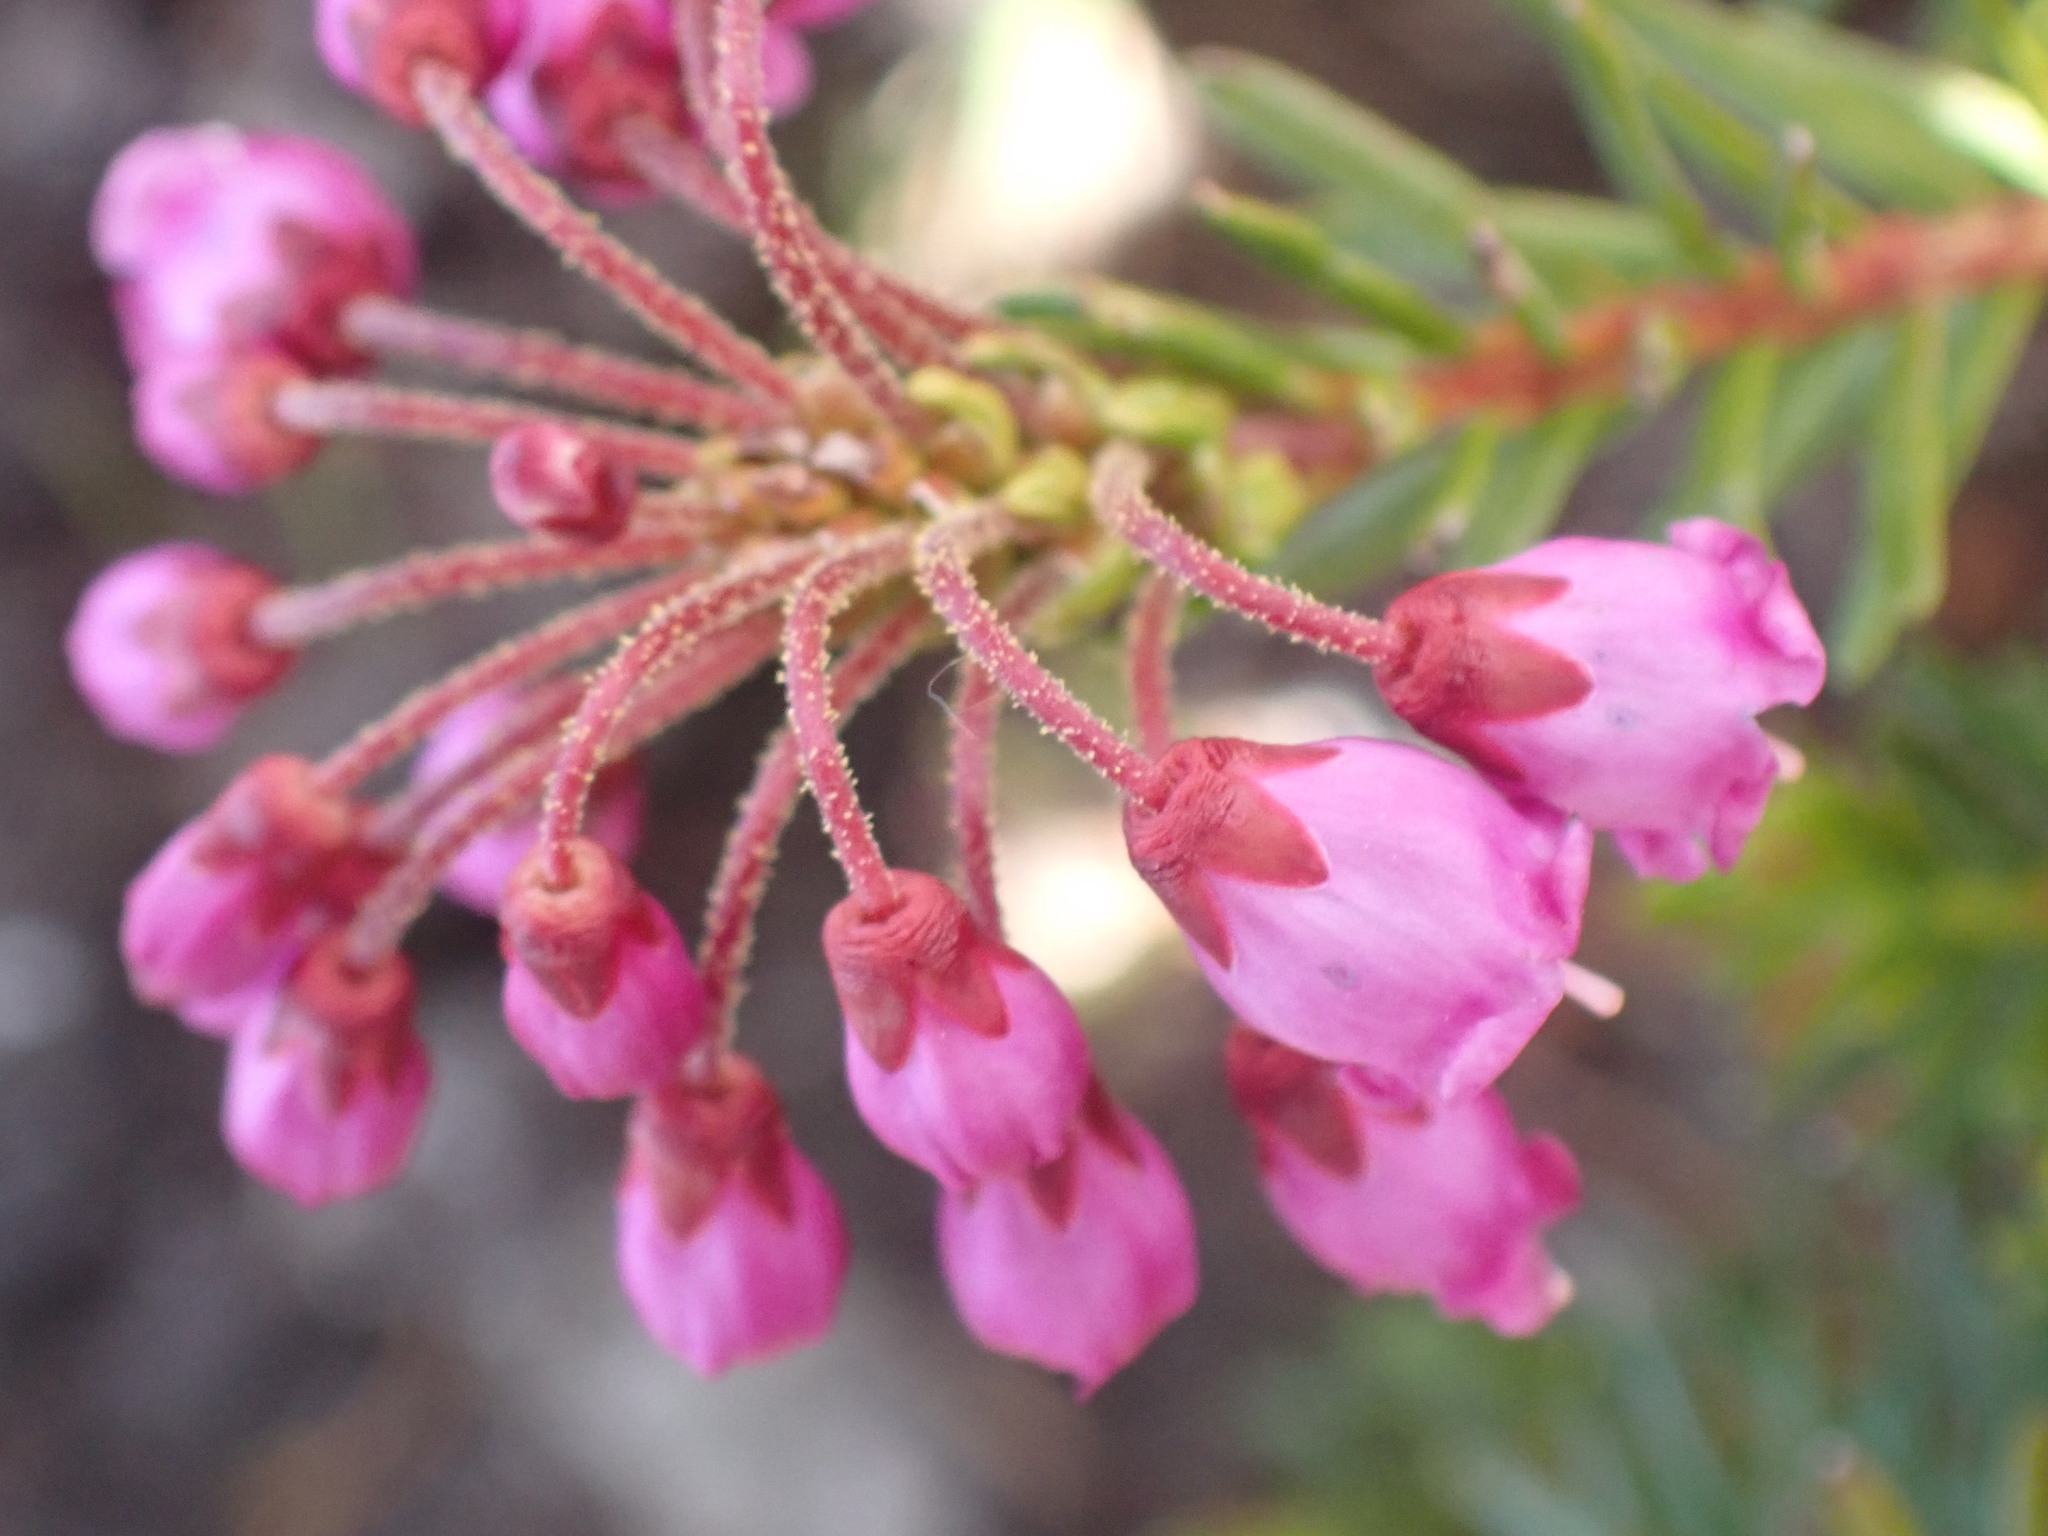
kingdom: Plantae
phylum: Tracheophyta
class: Magnoliopsida
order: Ericales
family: Ericaceae
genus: Phyllodoce
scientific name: Phyllodoce empetriformis
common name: Pink mountain heather
